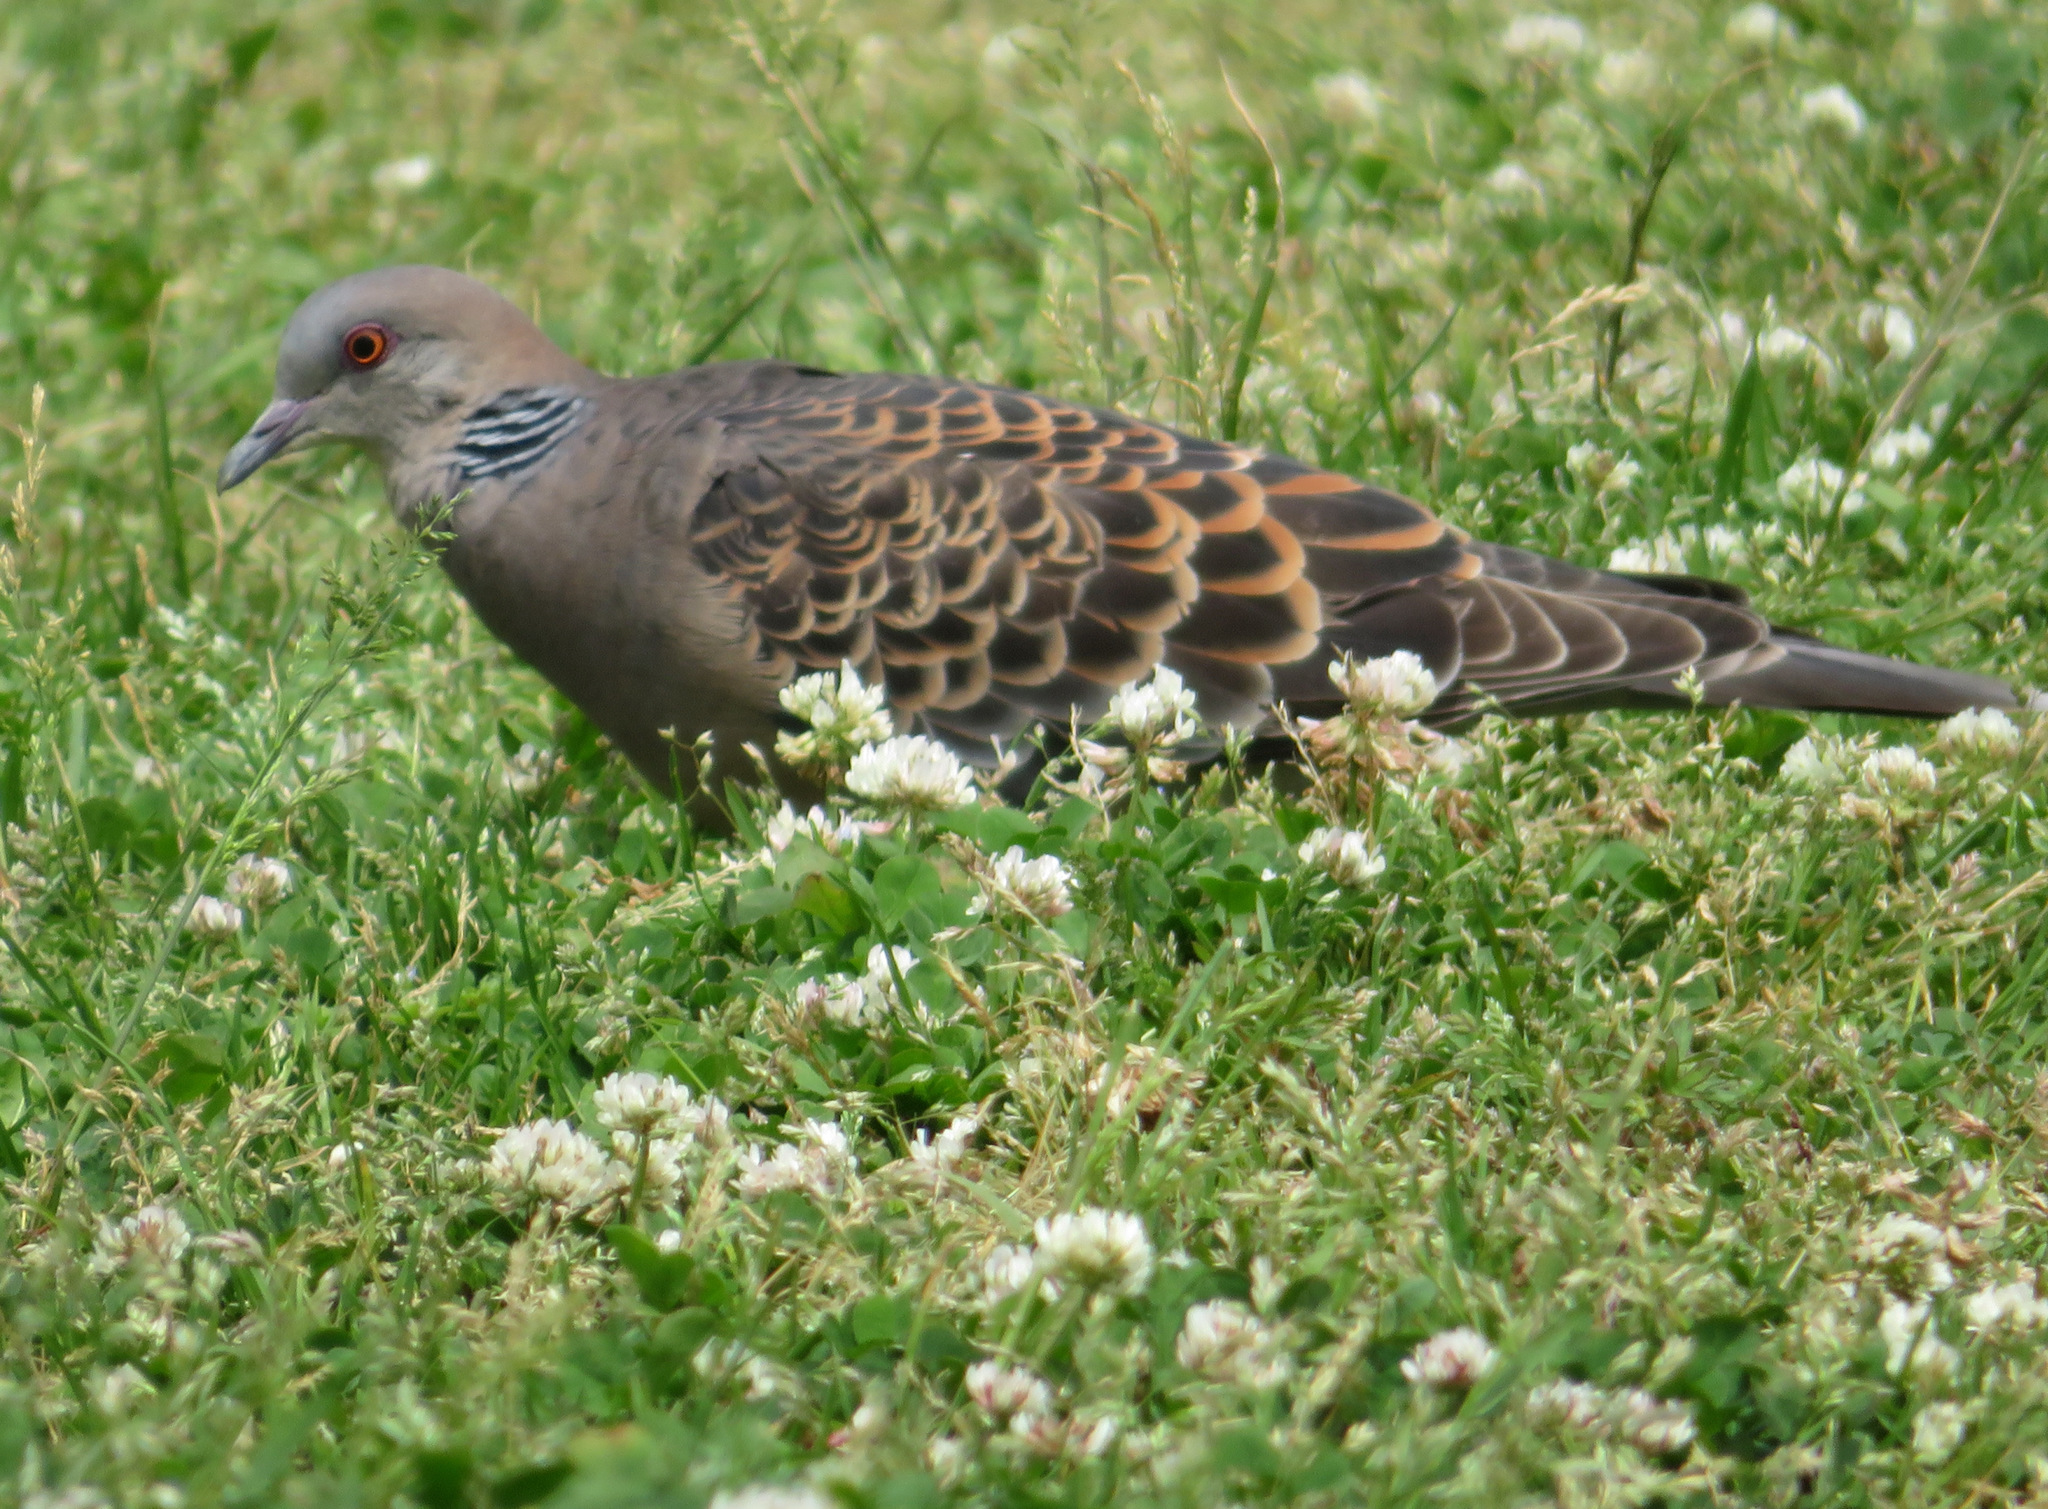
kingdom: Animalia
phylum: Chordata
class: Aves
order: Columbiformes
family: Columbidae
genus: Streptopelia
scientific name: Streptopelia orientalis
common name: Oriental turtle dove
